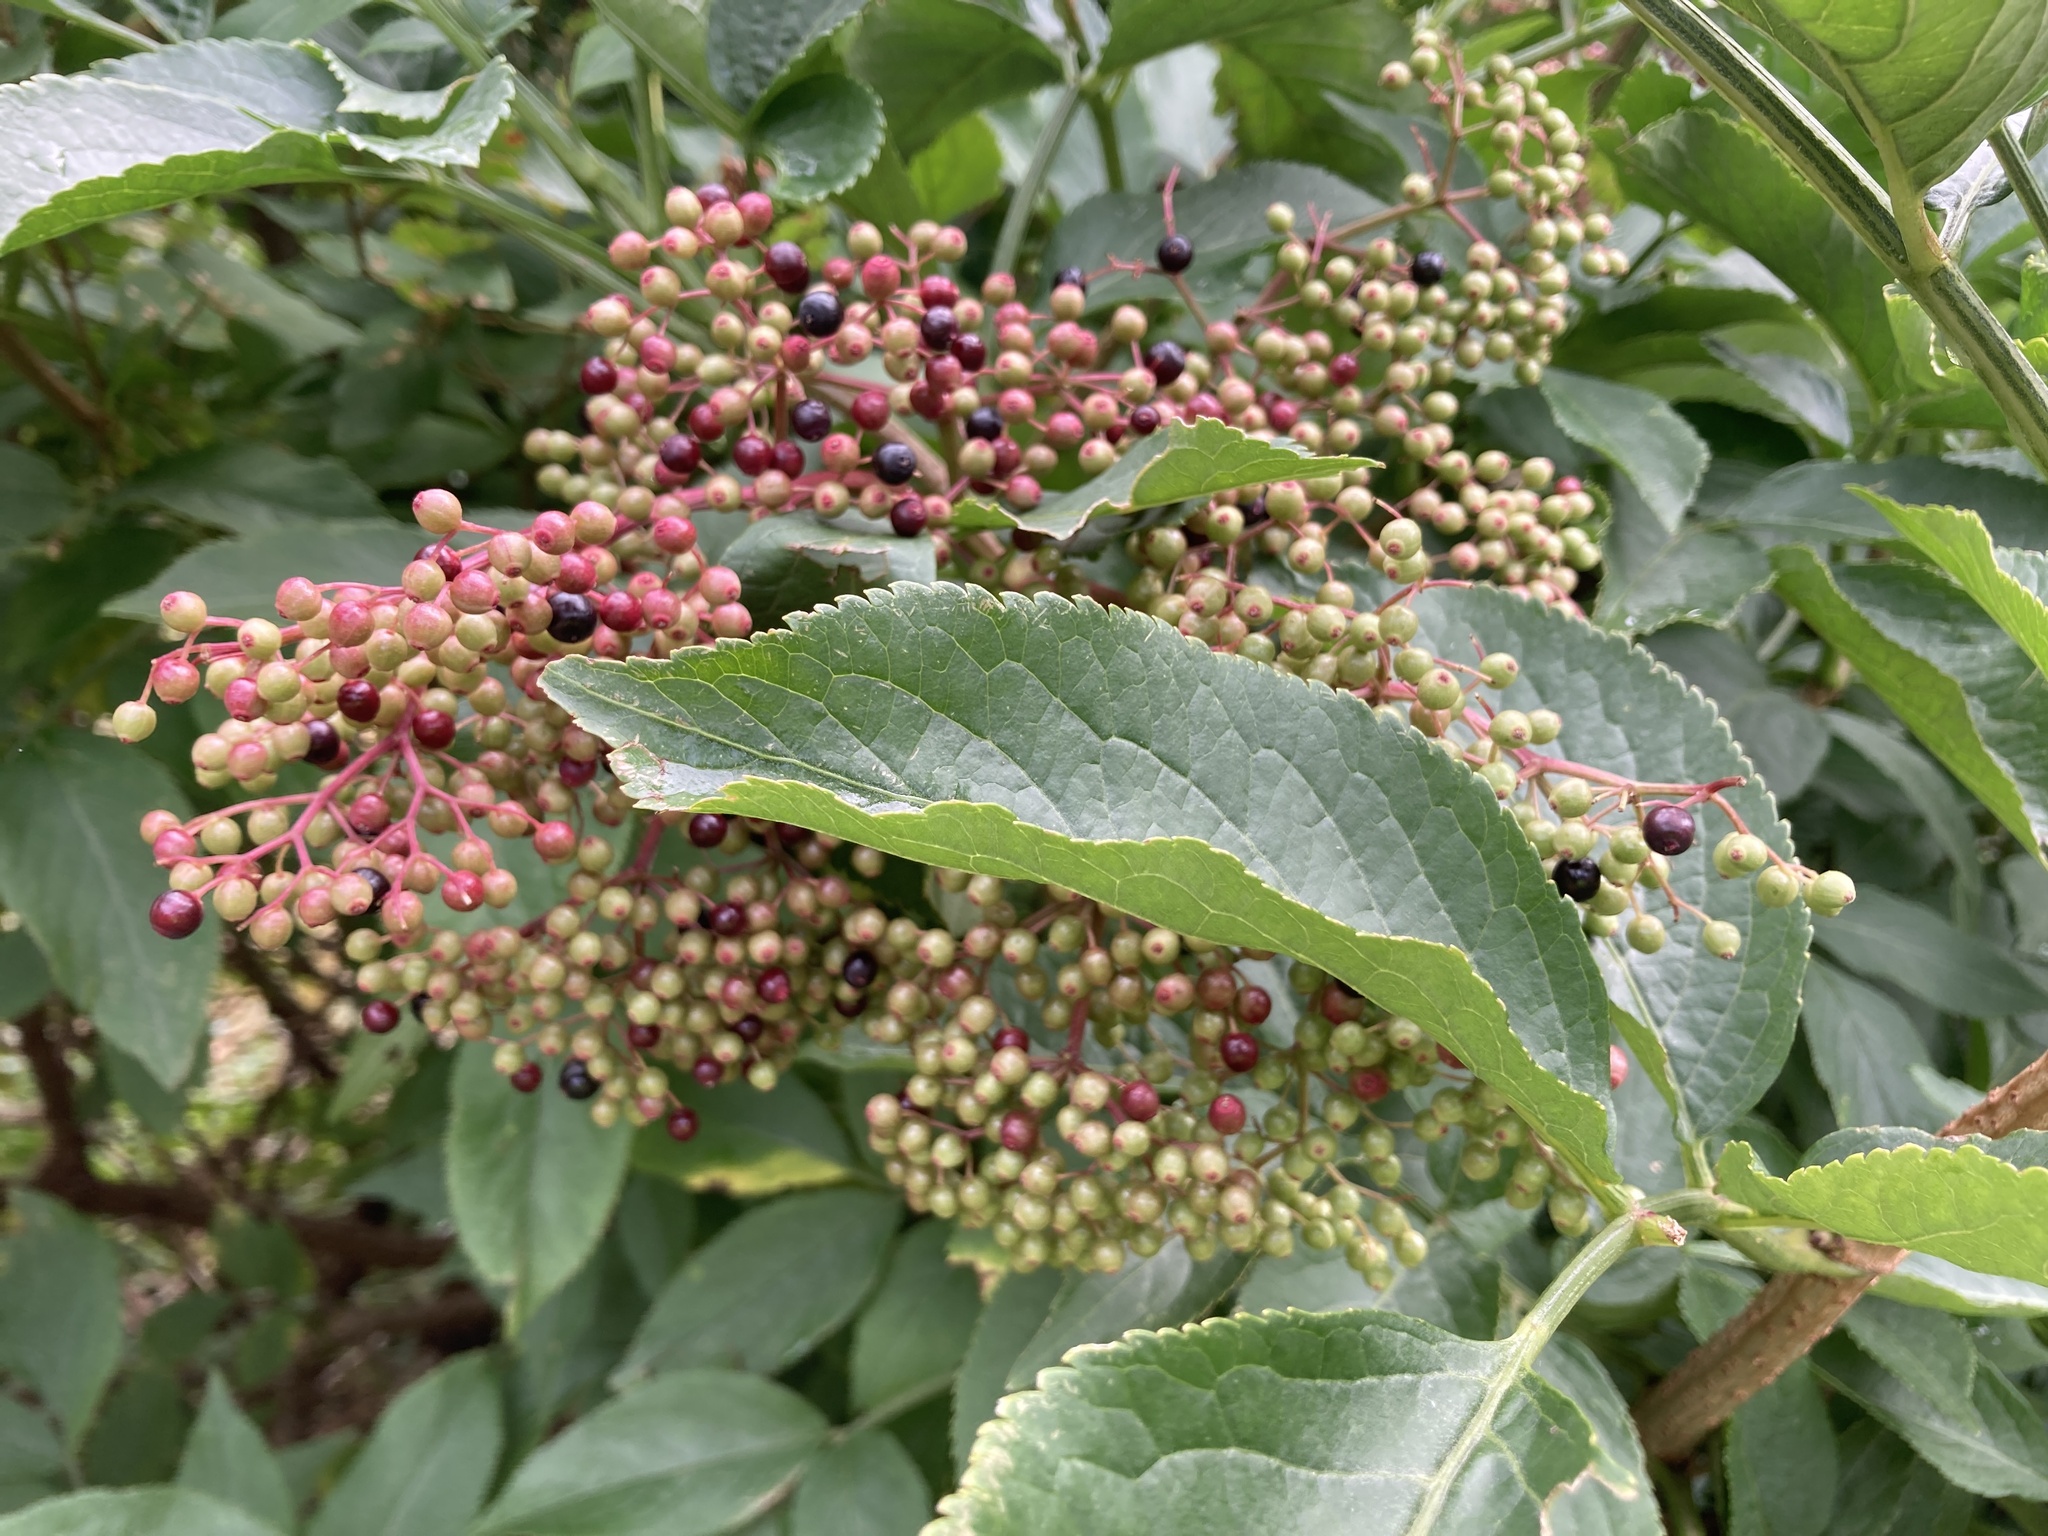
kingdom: Plantae
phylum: Tracheophyta
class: Magnoliopsida
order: Dipsacales
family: Viburnaceae
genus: Sambucus
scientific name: Sambucus nigra
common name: Elder
